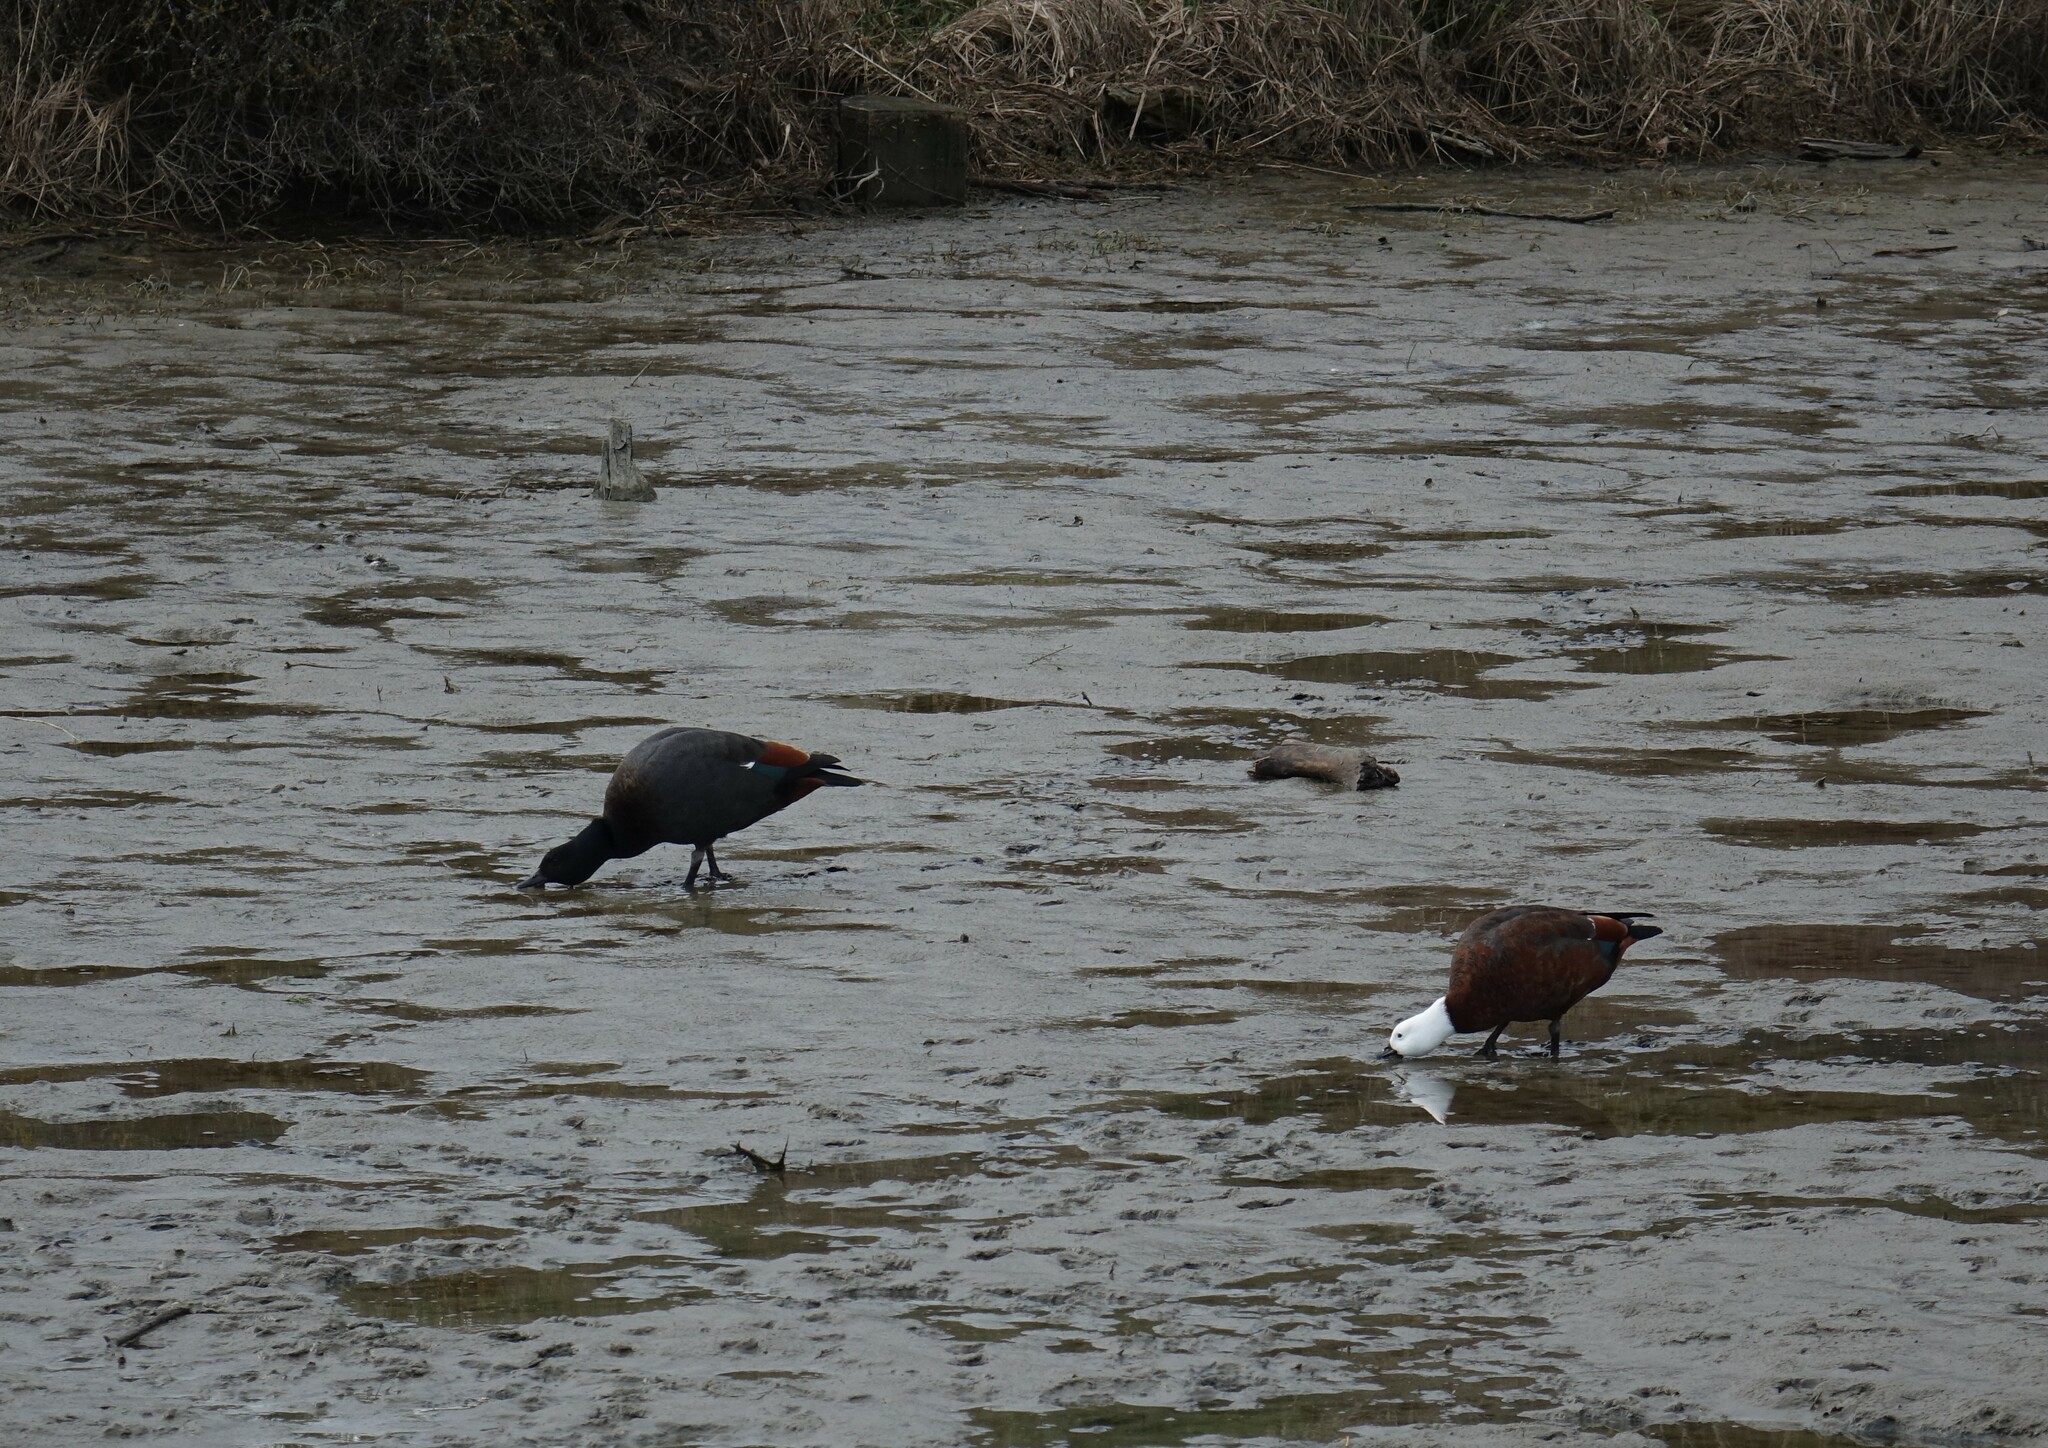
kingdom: Animalia
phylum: Chordata
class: Aves
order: Anseriformes
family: Anatidae
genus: Tadorna
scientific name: Tadorna variegata
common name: Paradise shelduck
